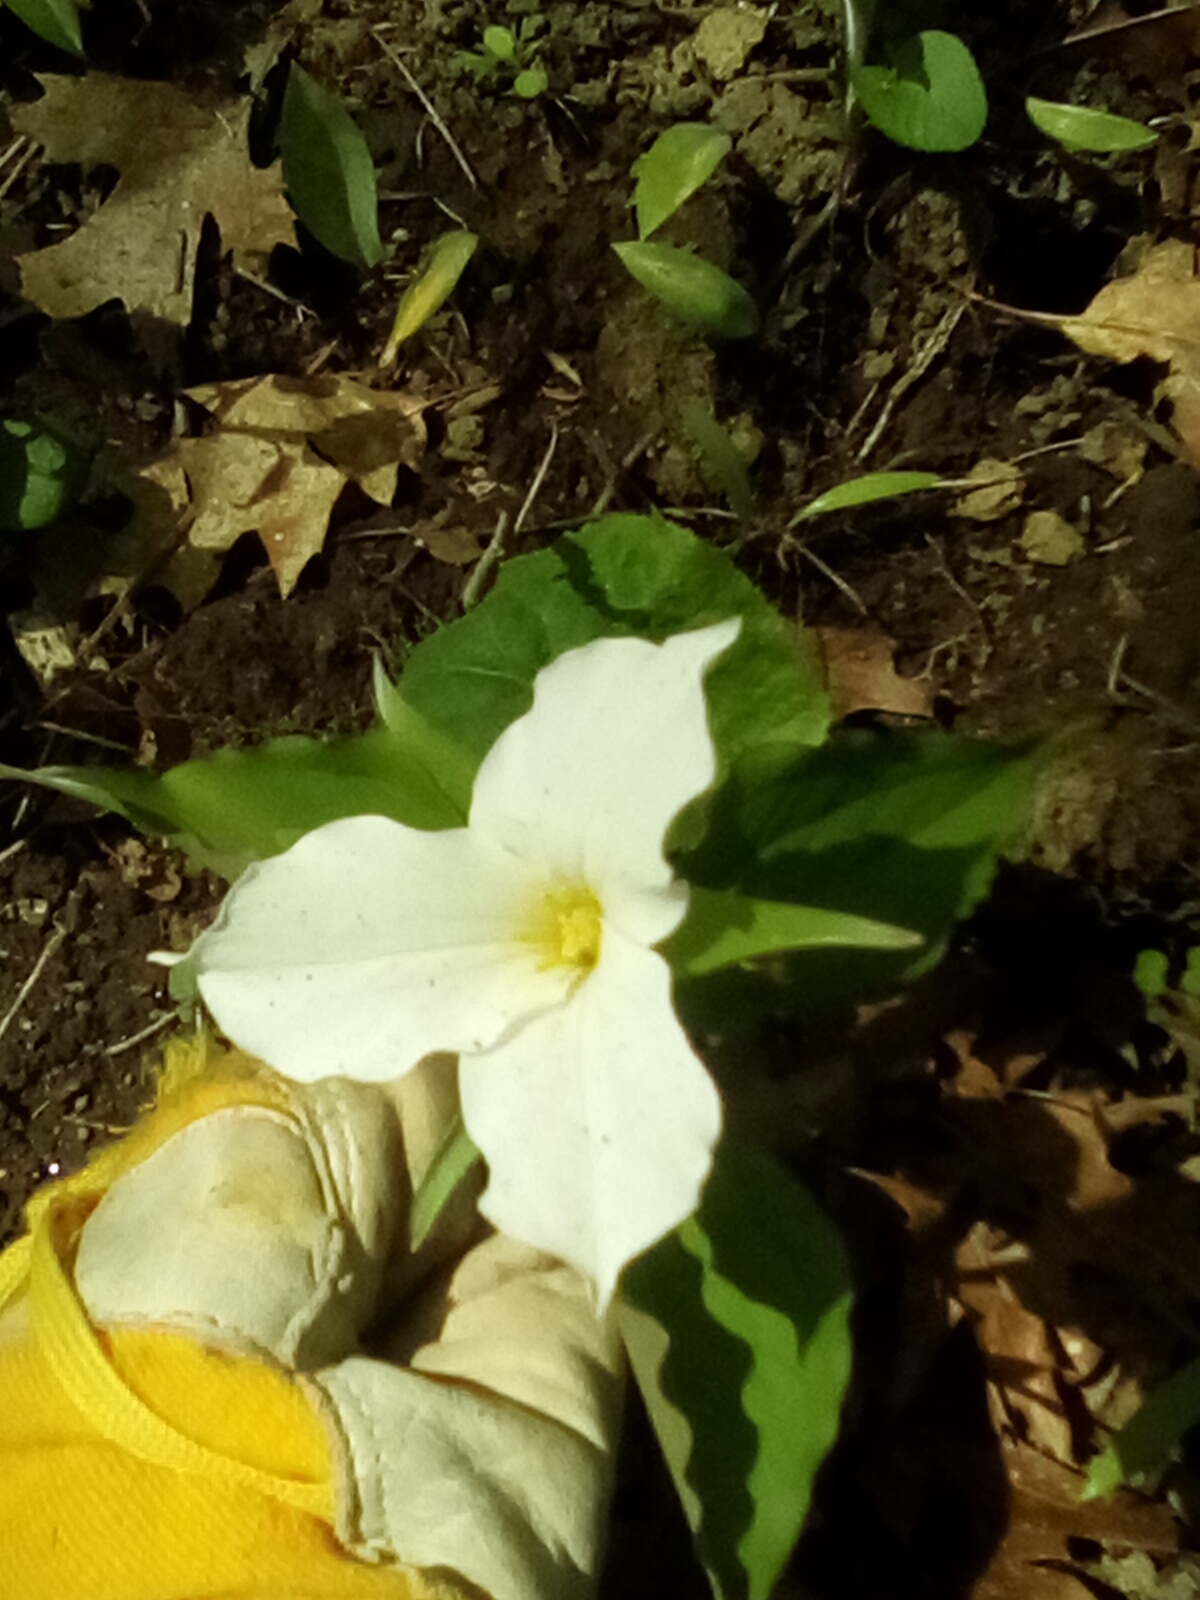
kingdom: Plantae
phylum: Tracheophyta
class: Liliopsida
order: Liliales
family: Melanthiaceae
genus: Trillium
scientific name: Trillium grandiflorum
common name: Great white trillium
